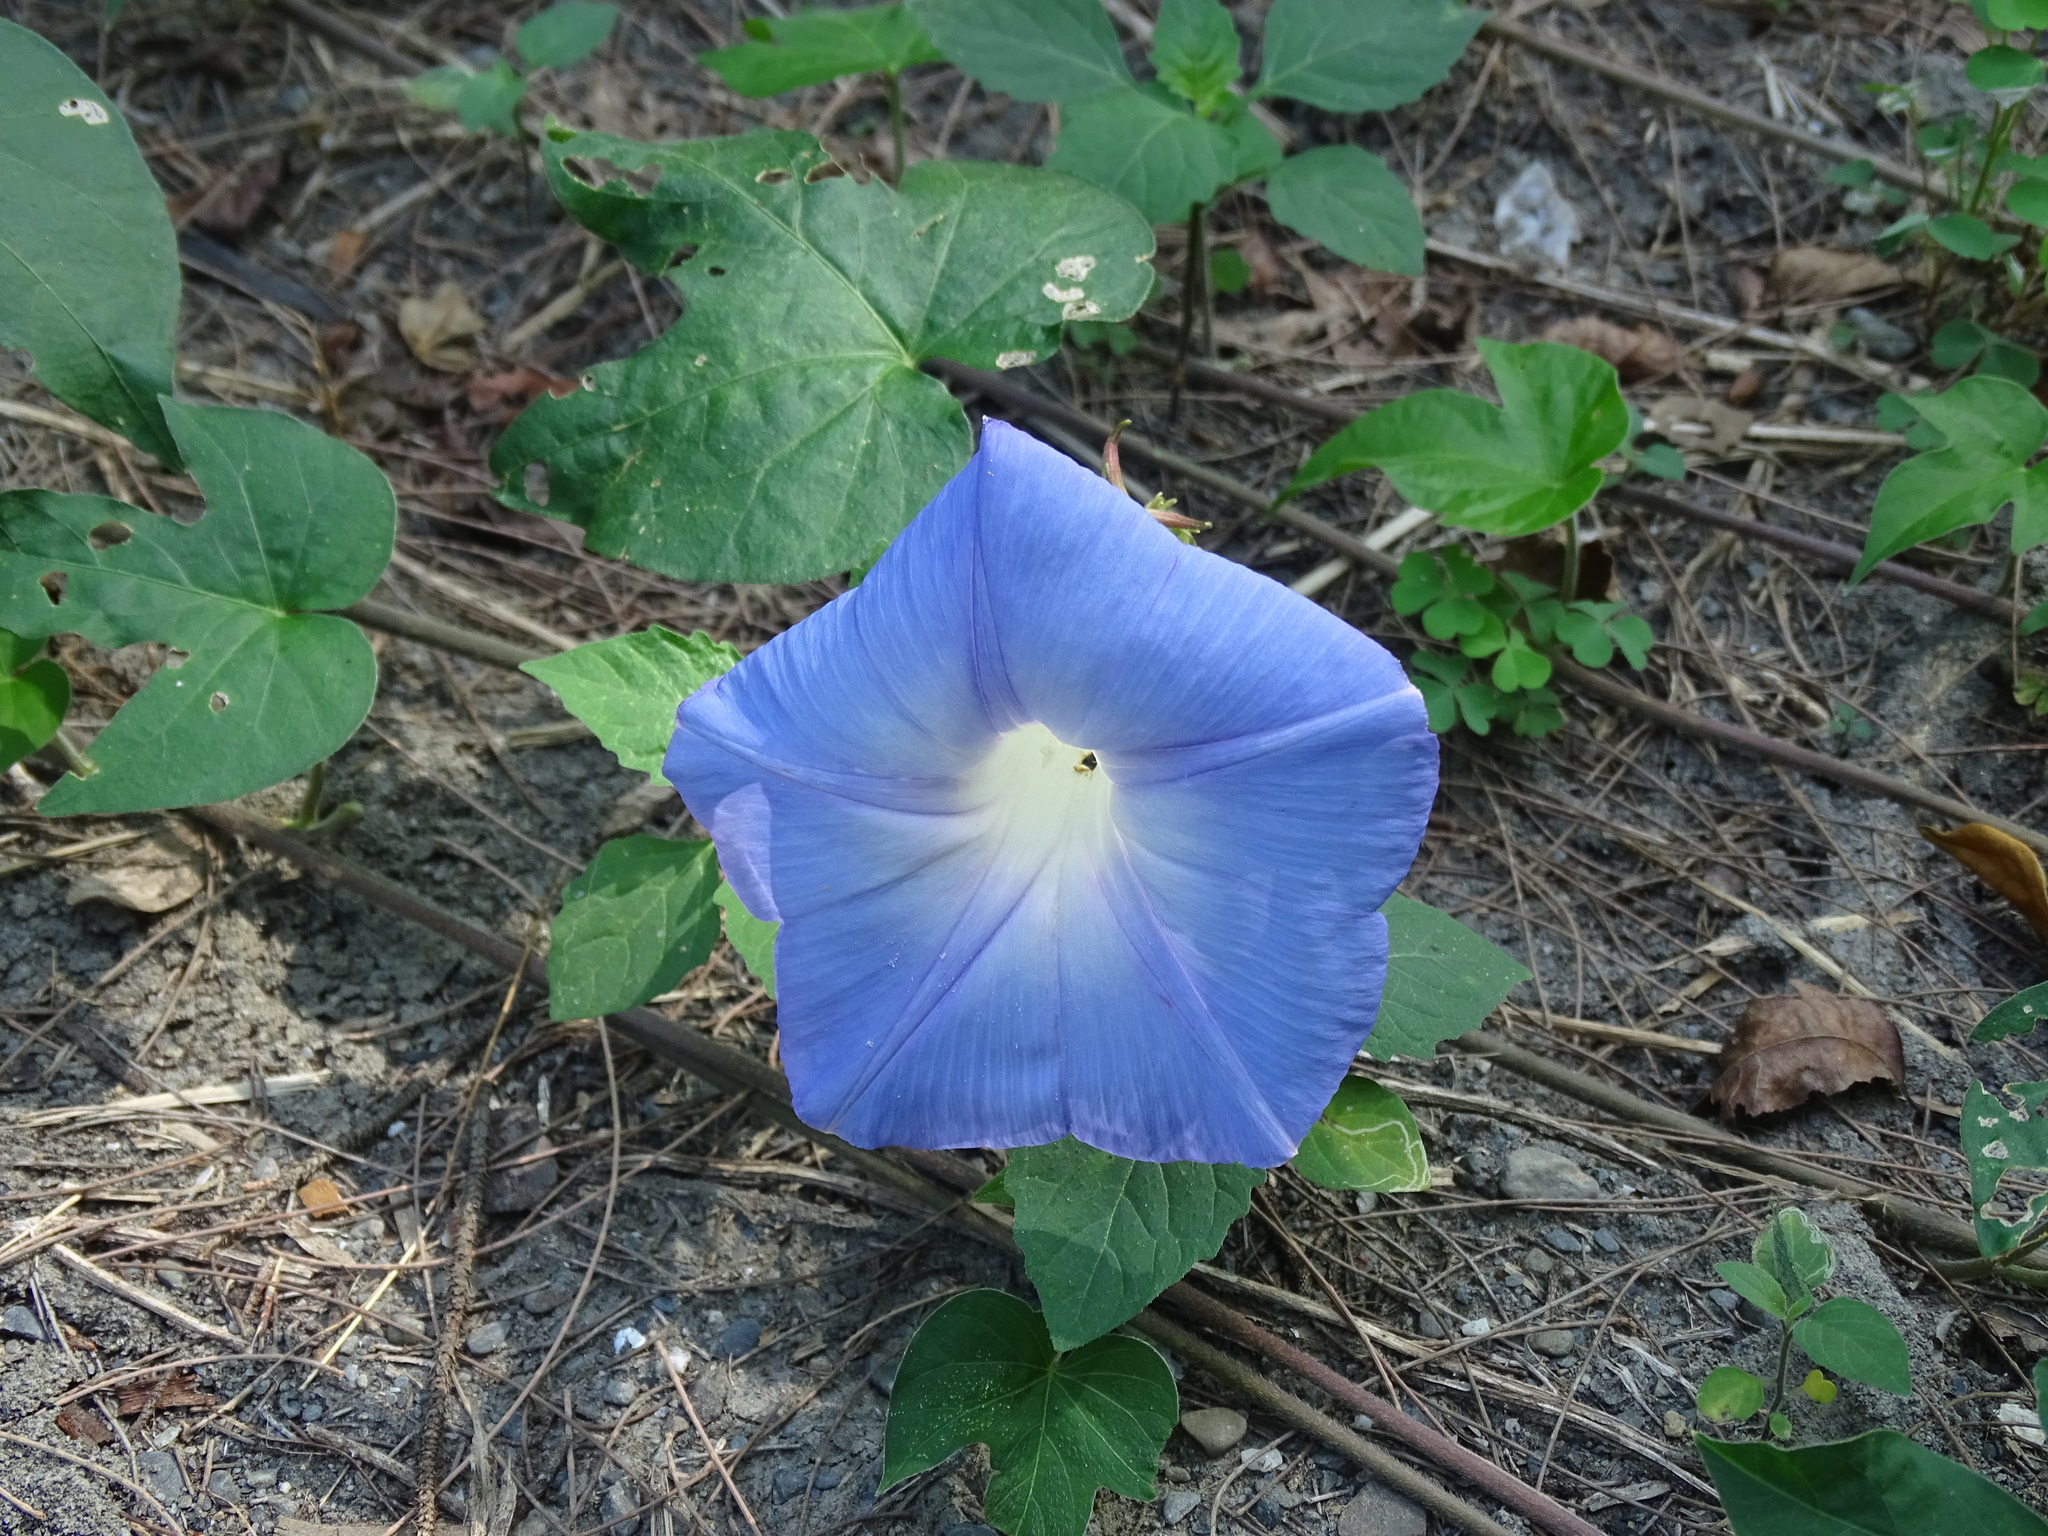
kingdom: Plantae
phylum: Tracheophyta
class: Magnoliopsida
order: Solanales
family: Convolvulaceae
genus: Ipomoea
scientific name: Ipomoea nil
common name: Japanese morning-glory
